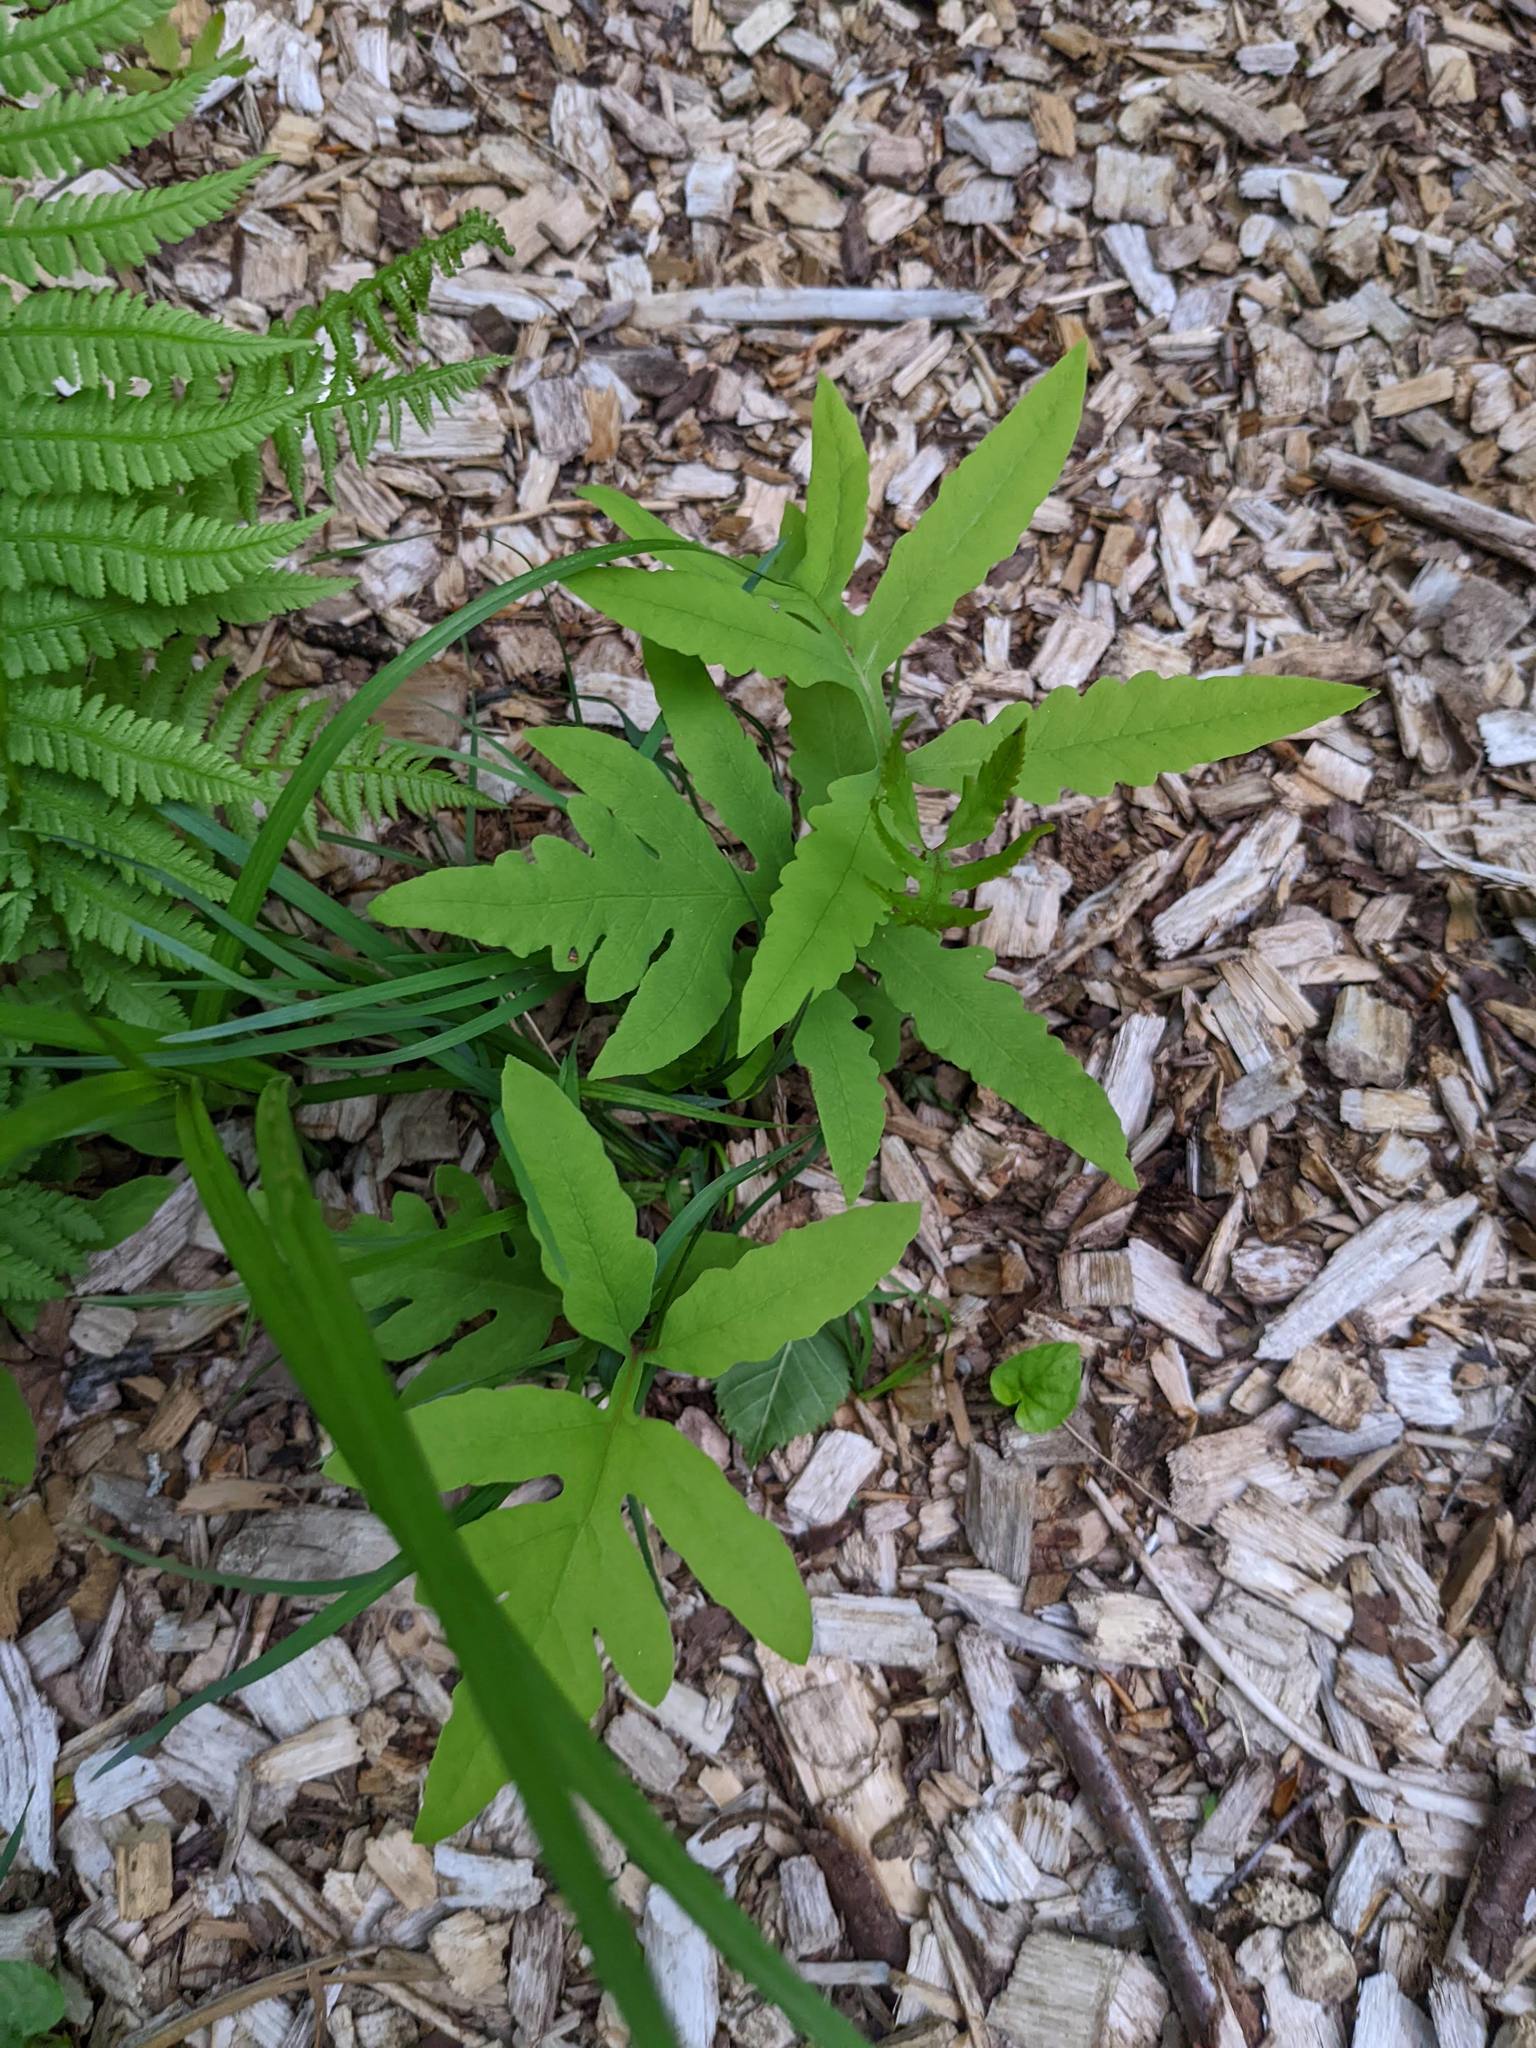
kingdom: Plantae
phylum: Tracheophyta
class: Polypodiopsida
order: Polypodiales
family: Onocleaceae
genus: Onoclea
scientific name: Onoclea sensibilis
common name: Sensitive fern
